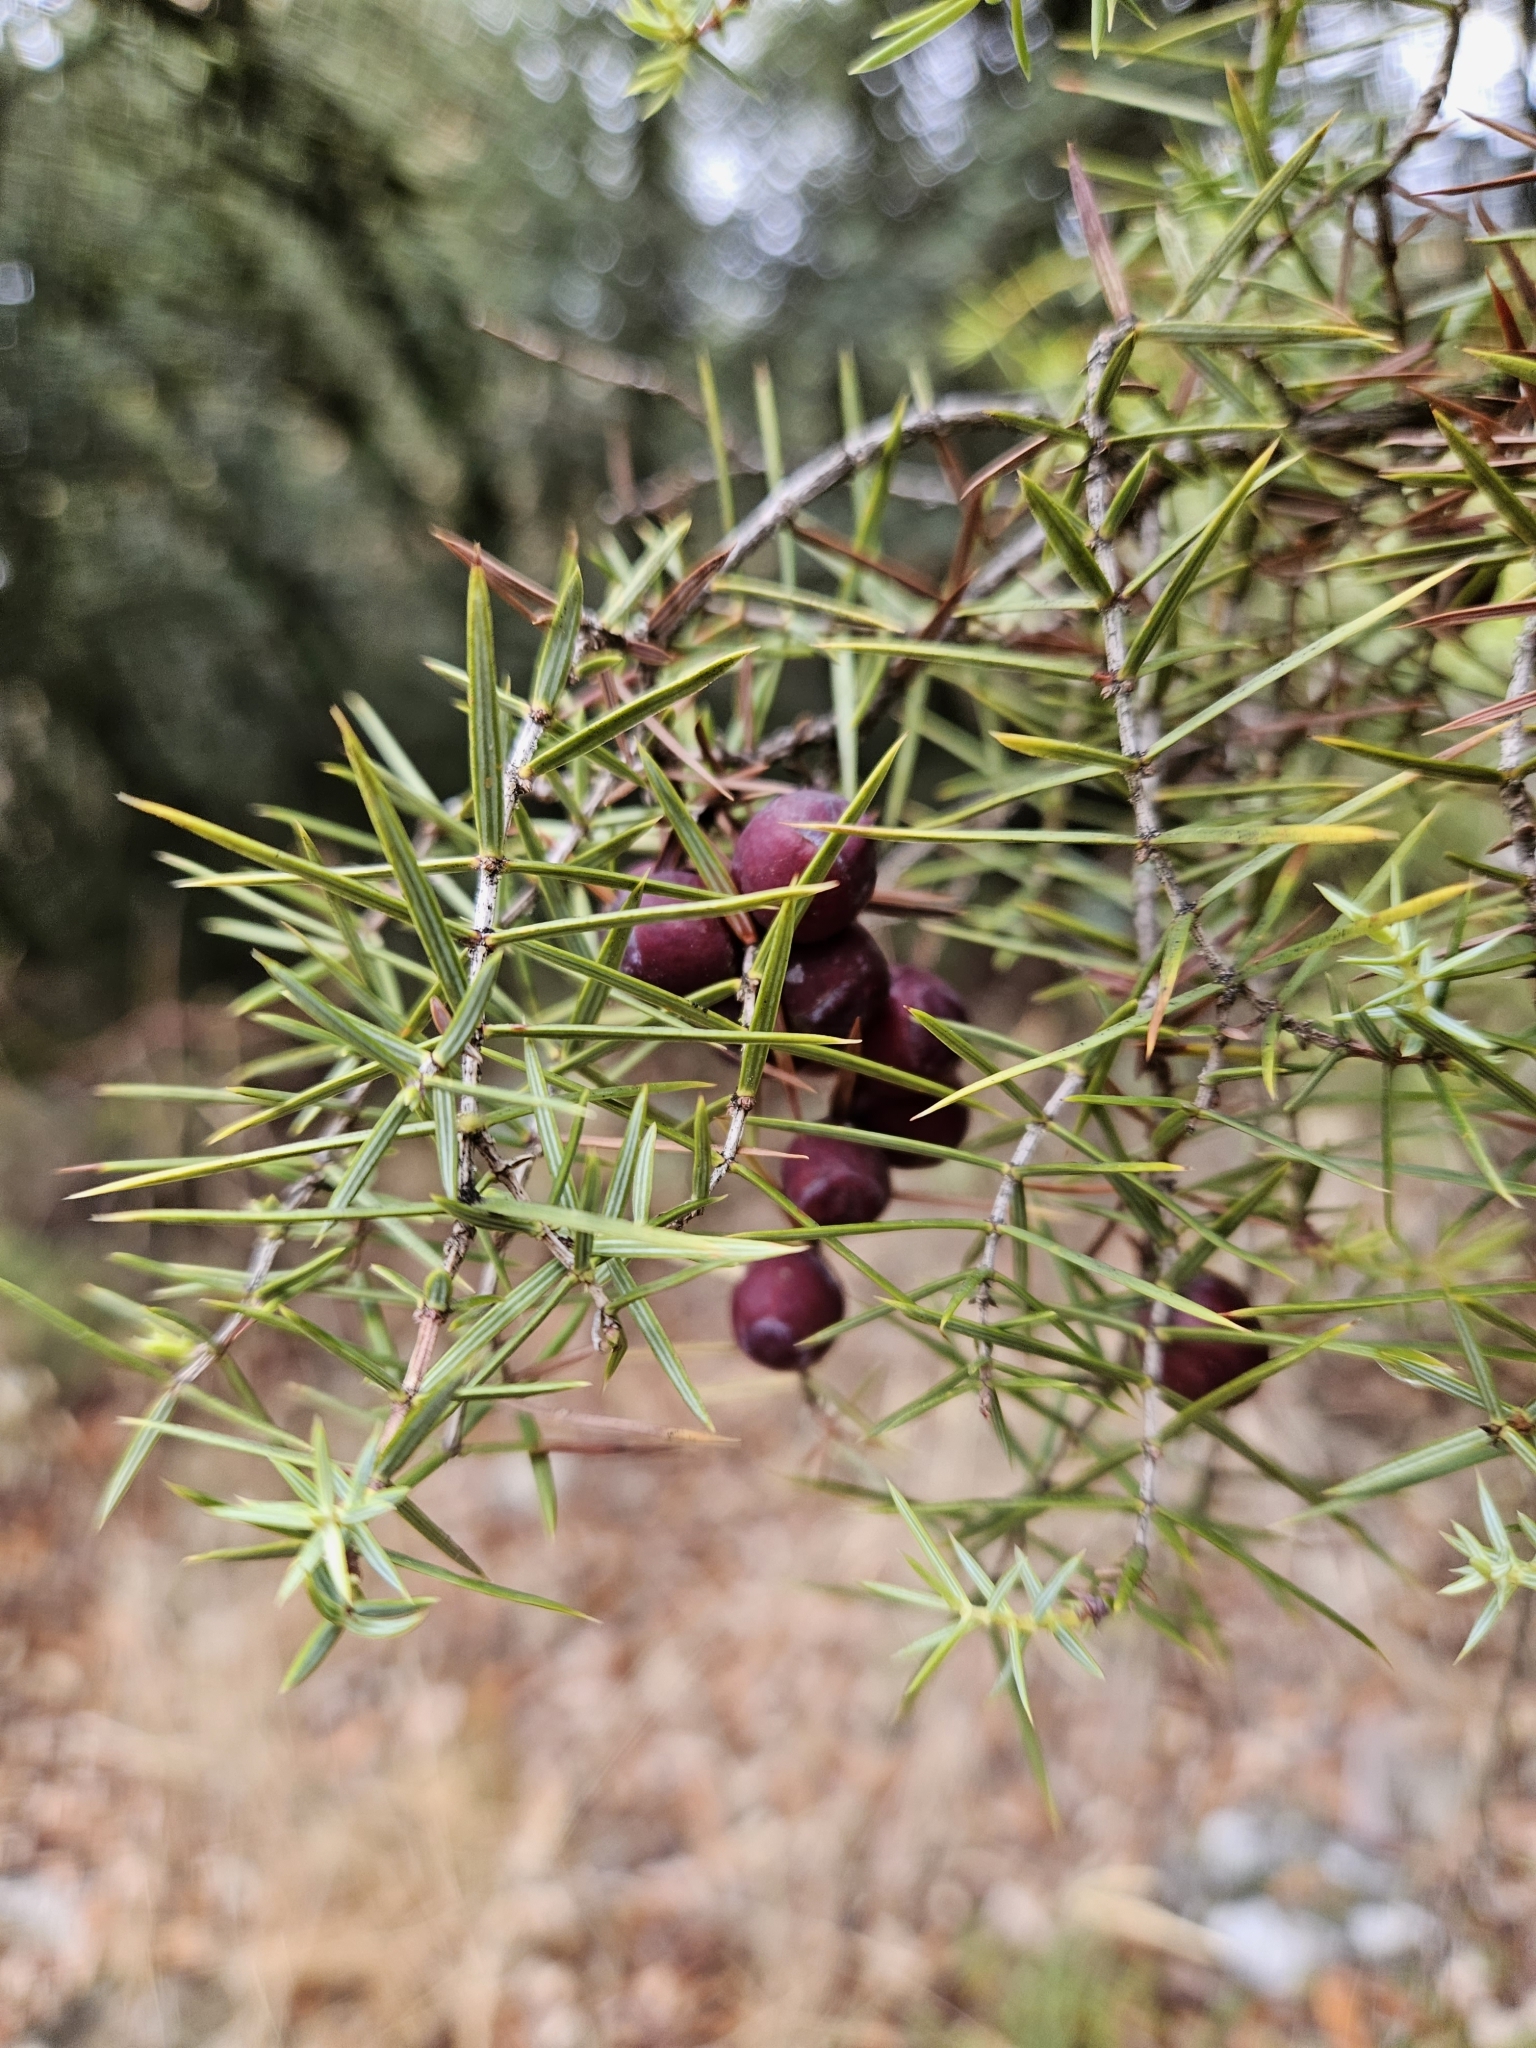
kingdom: Plantae
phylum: Tracheophyta
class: Pinopsida
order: Pinales
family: Cupressaceae
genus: Juniperus
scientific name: Juniperus oxycedrus
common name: Prickly juniper
